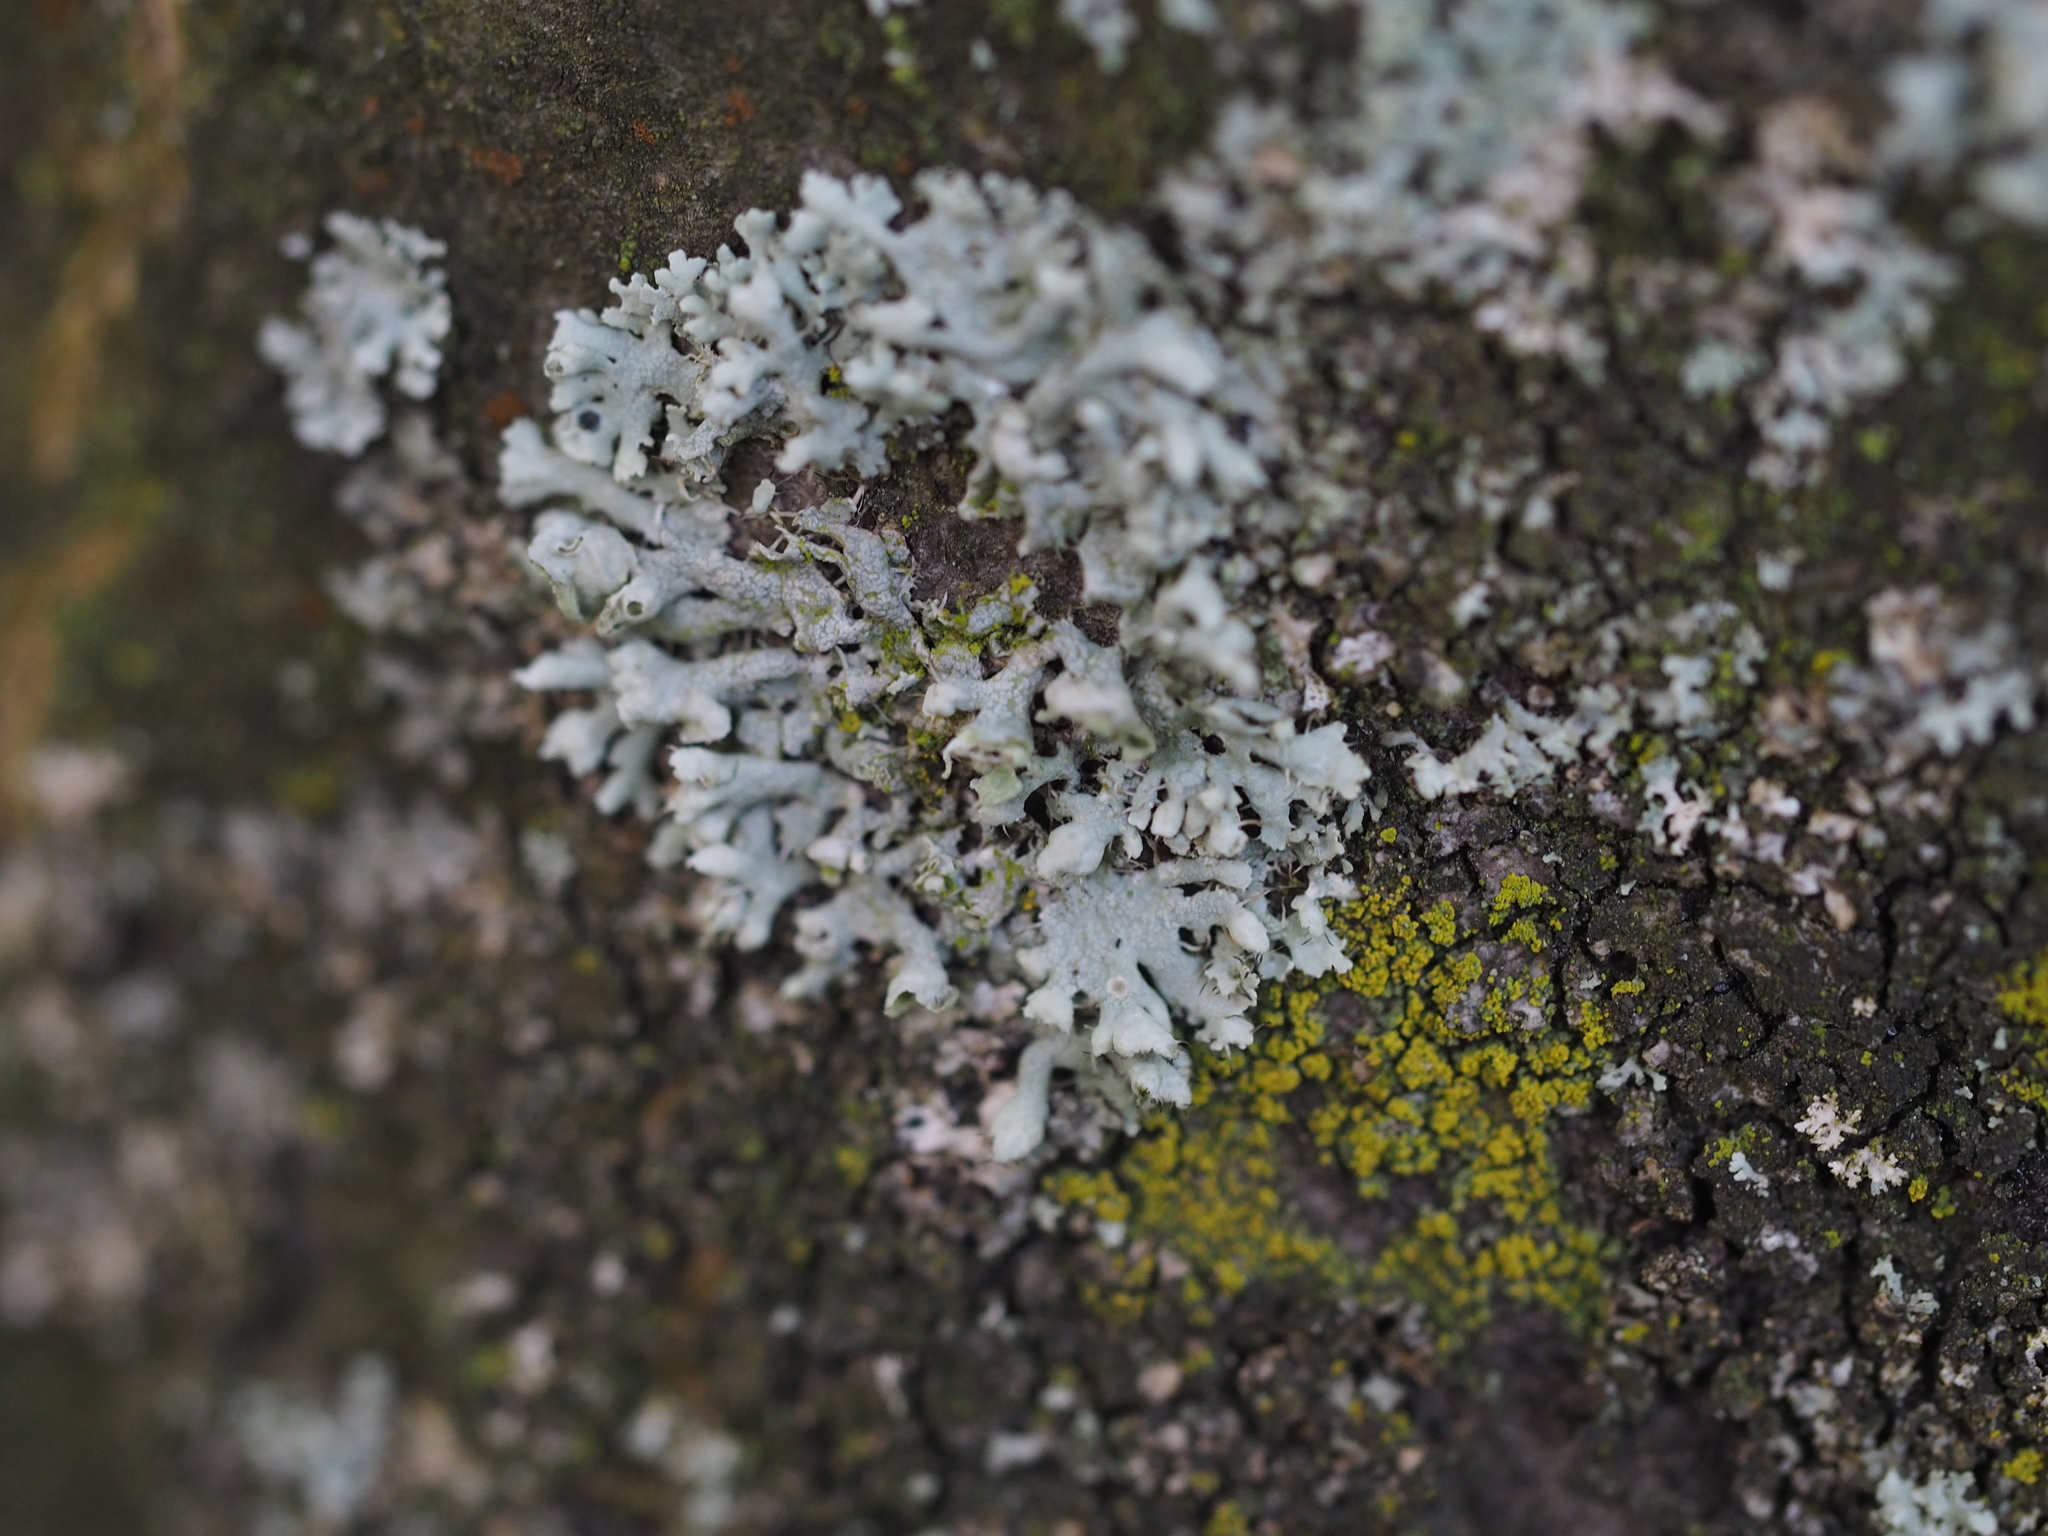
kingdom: Fungi
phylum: Ascomycota
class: Lecanoromycetes
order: Caliciales
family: Physciaceae
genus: Physcia
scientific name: Physcia adscendens
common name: Hooded rosette lichen
